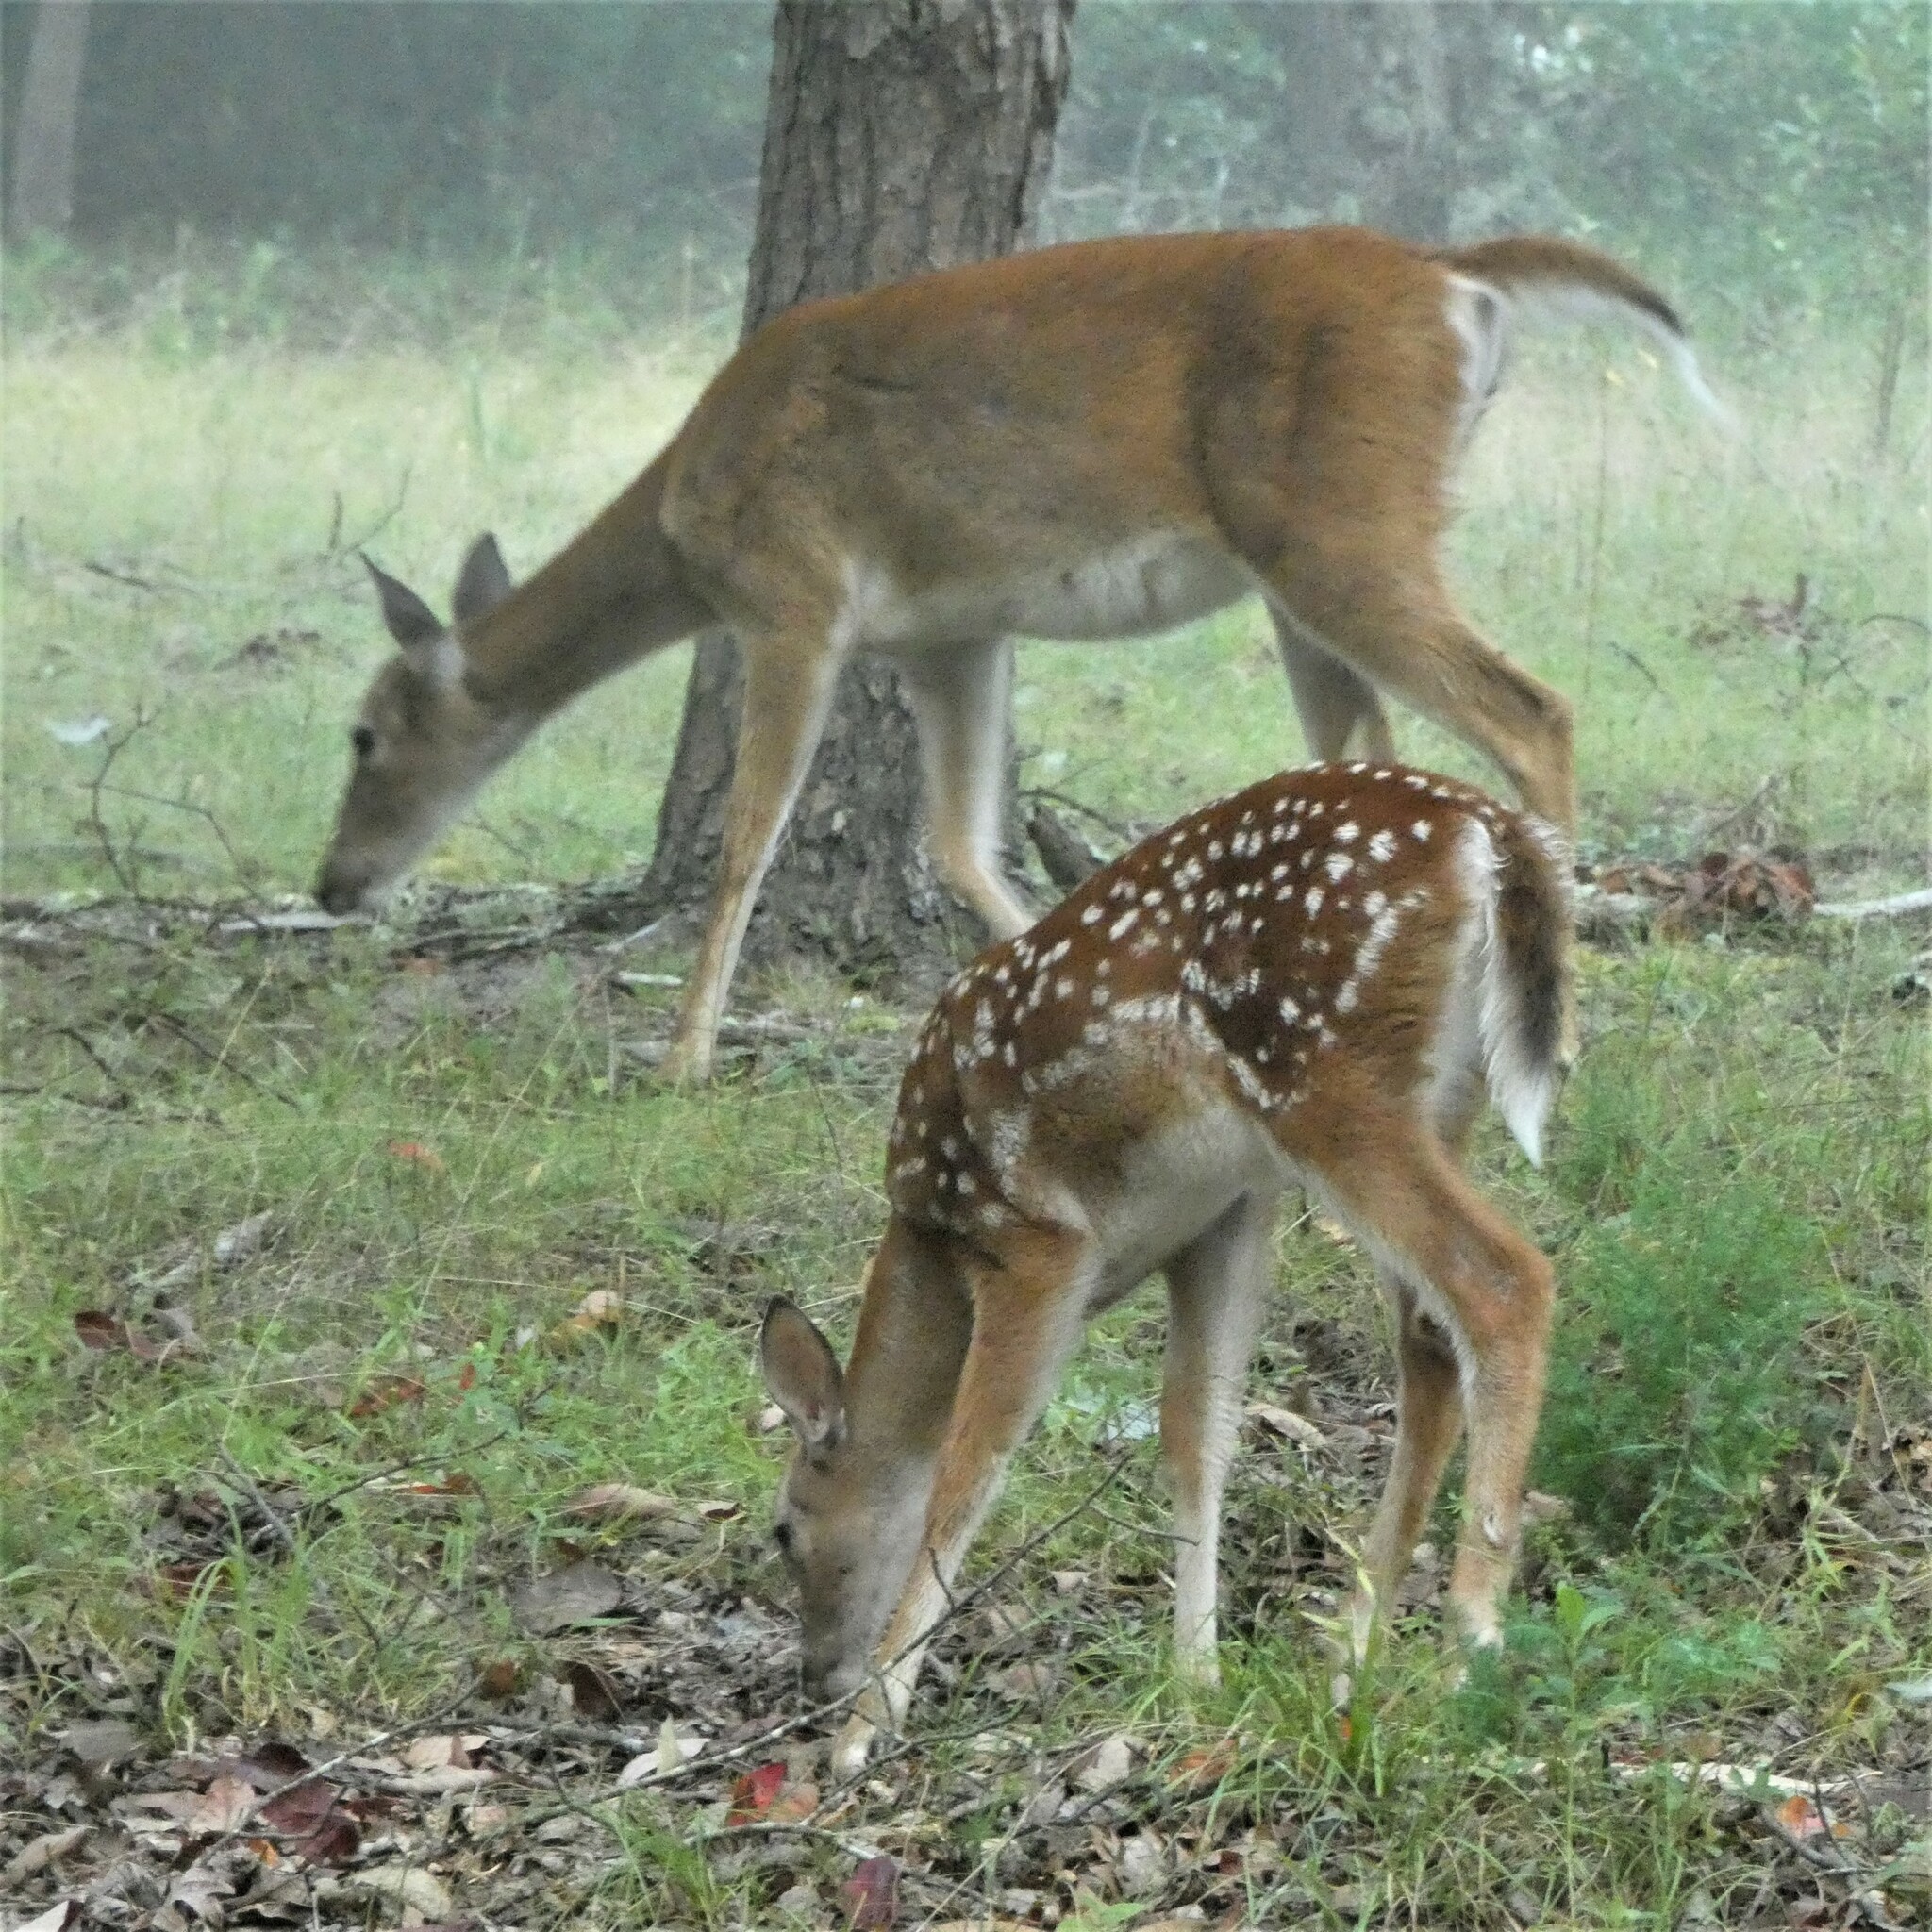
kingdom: Animalia
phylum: Chordata
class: Mammalia
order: Artiodactyla
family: Cervidae
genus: Odocoileus
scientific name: Odocoileus virginianus
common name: White-tailed deer
